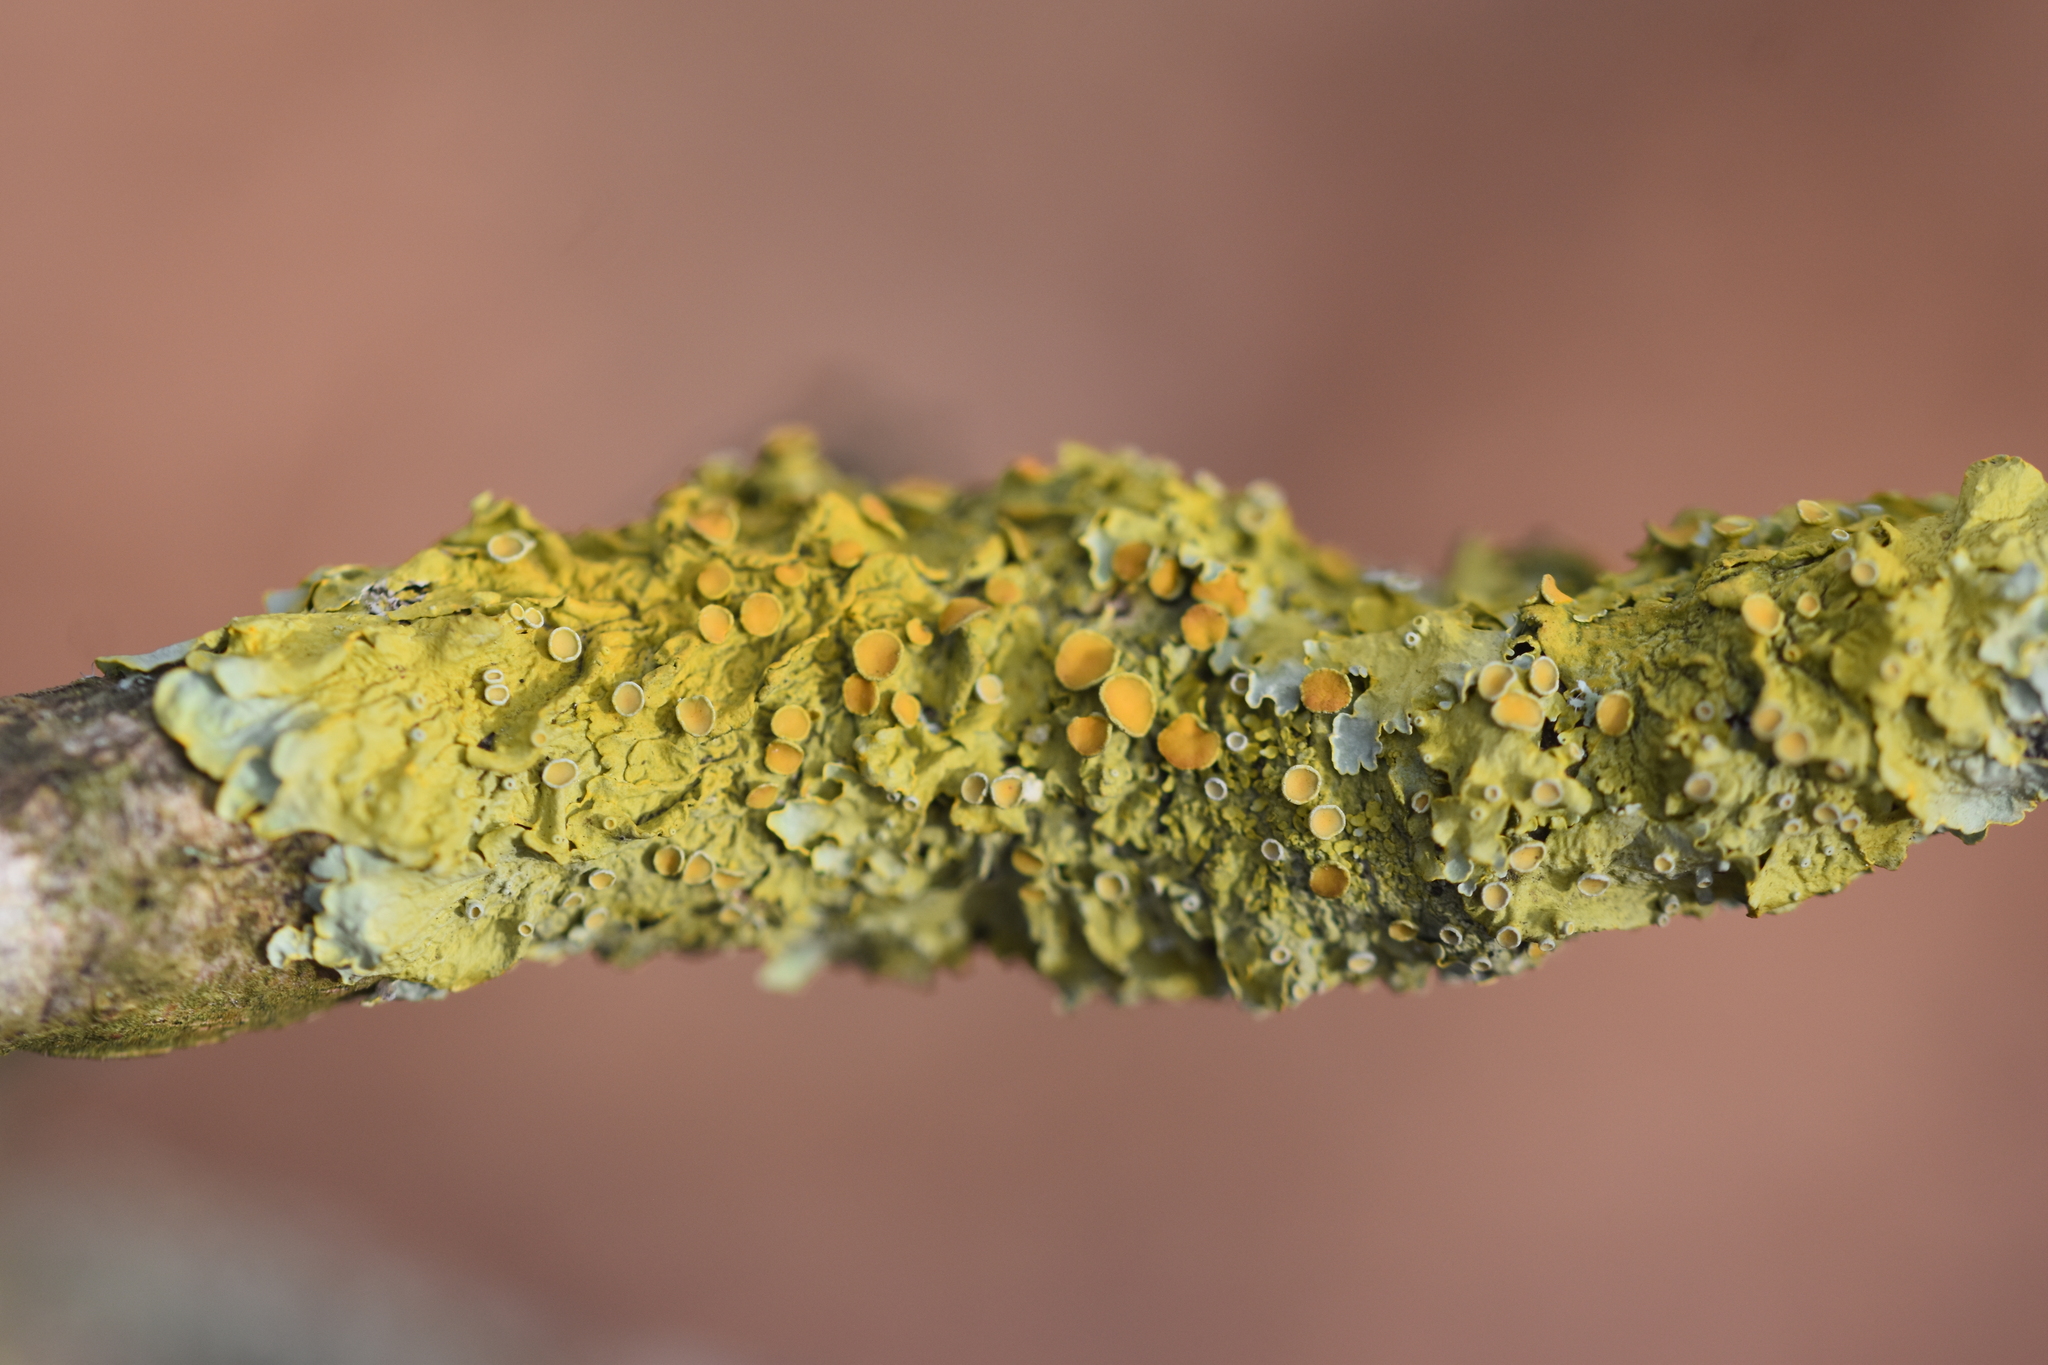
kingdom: Fungi
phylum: Ascomycota
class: Lecanoromycetes
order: Teloschistales
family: Teloschistaceae
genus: Xanthoria
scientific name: Xanthoria parietina
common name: Common orange lichen
